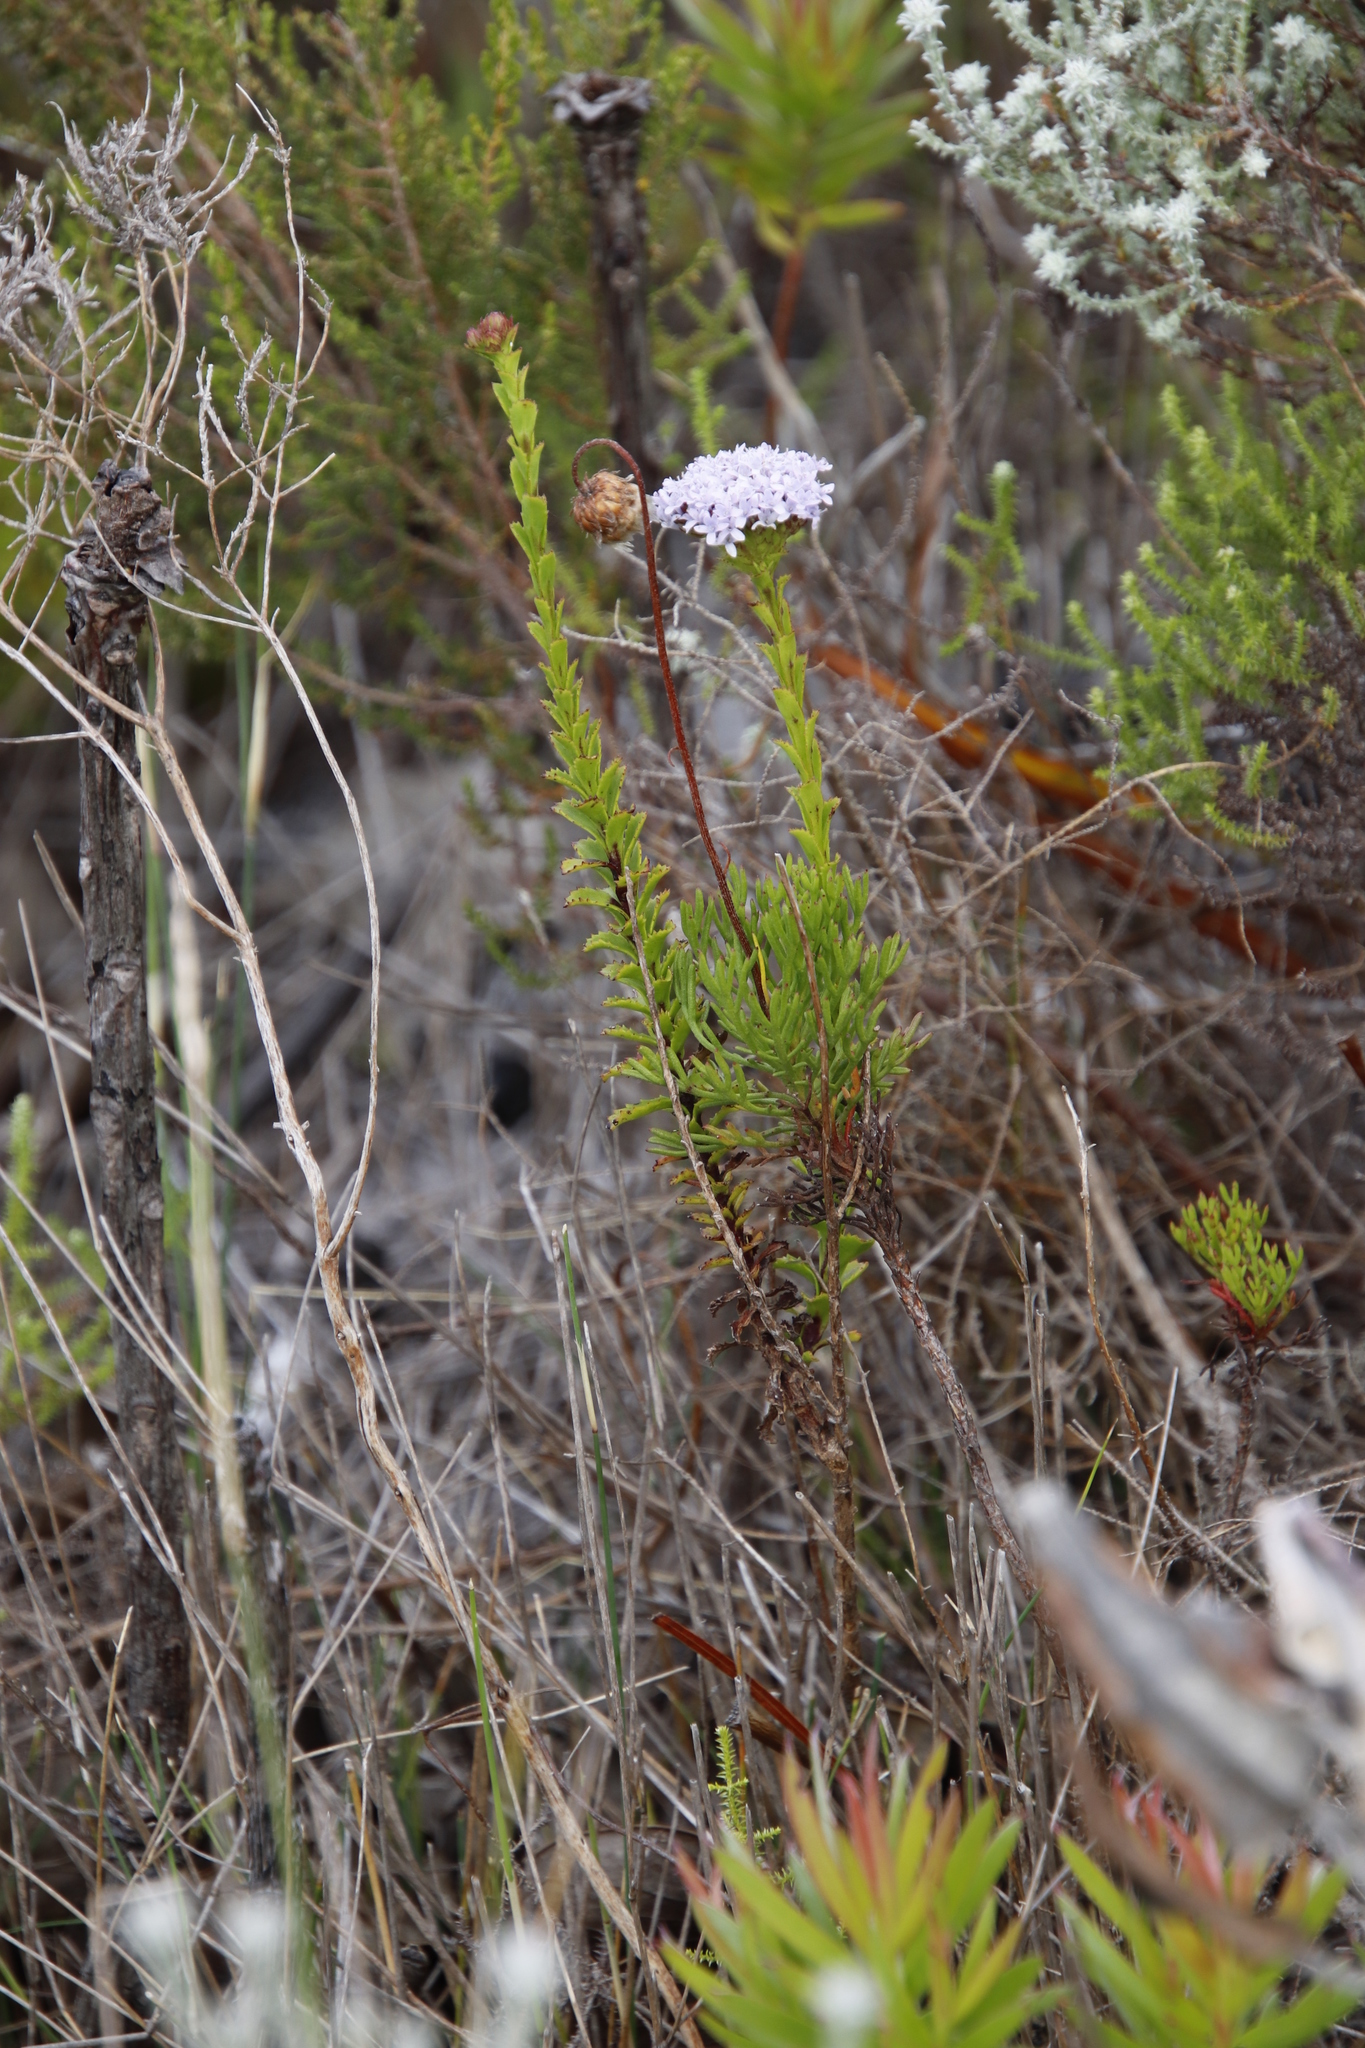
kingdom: Plantae
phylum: Tracheophyta
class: Magnoliopsida
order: Lamiales
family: Scrophulariaceae
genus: Pseudoselago
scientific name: Pseudoselago serrata
